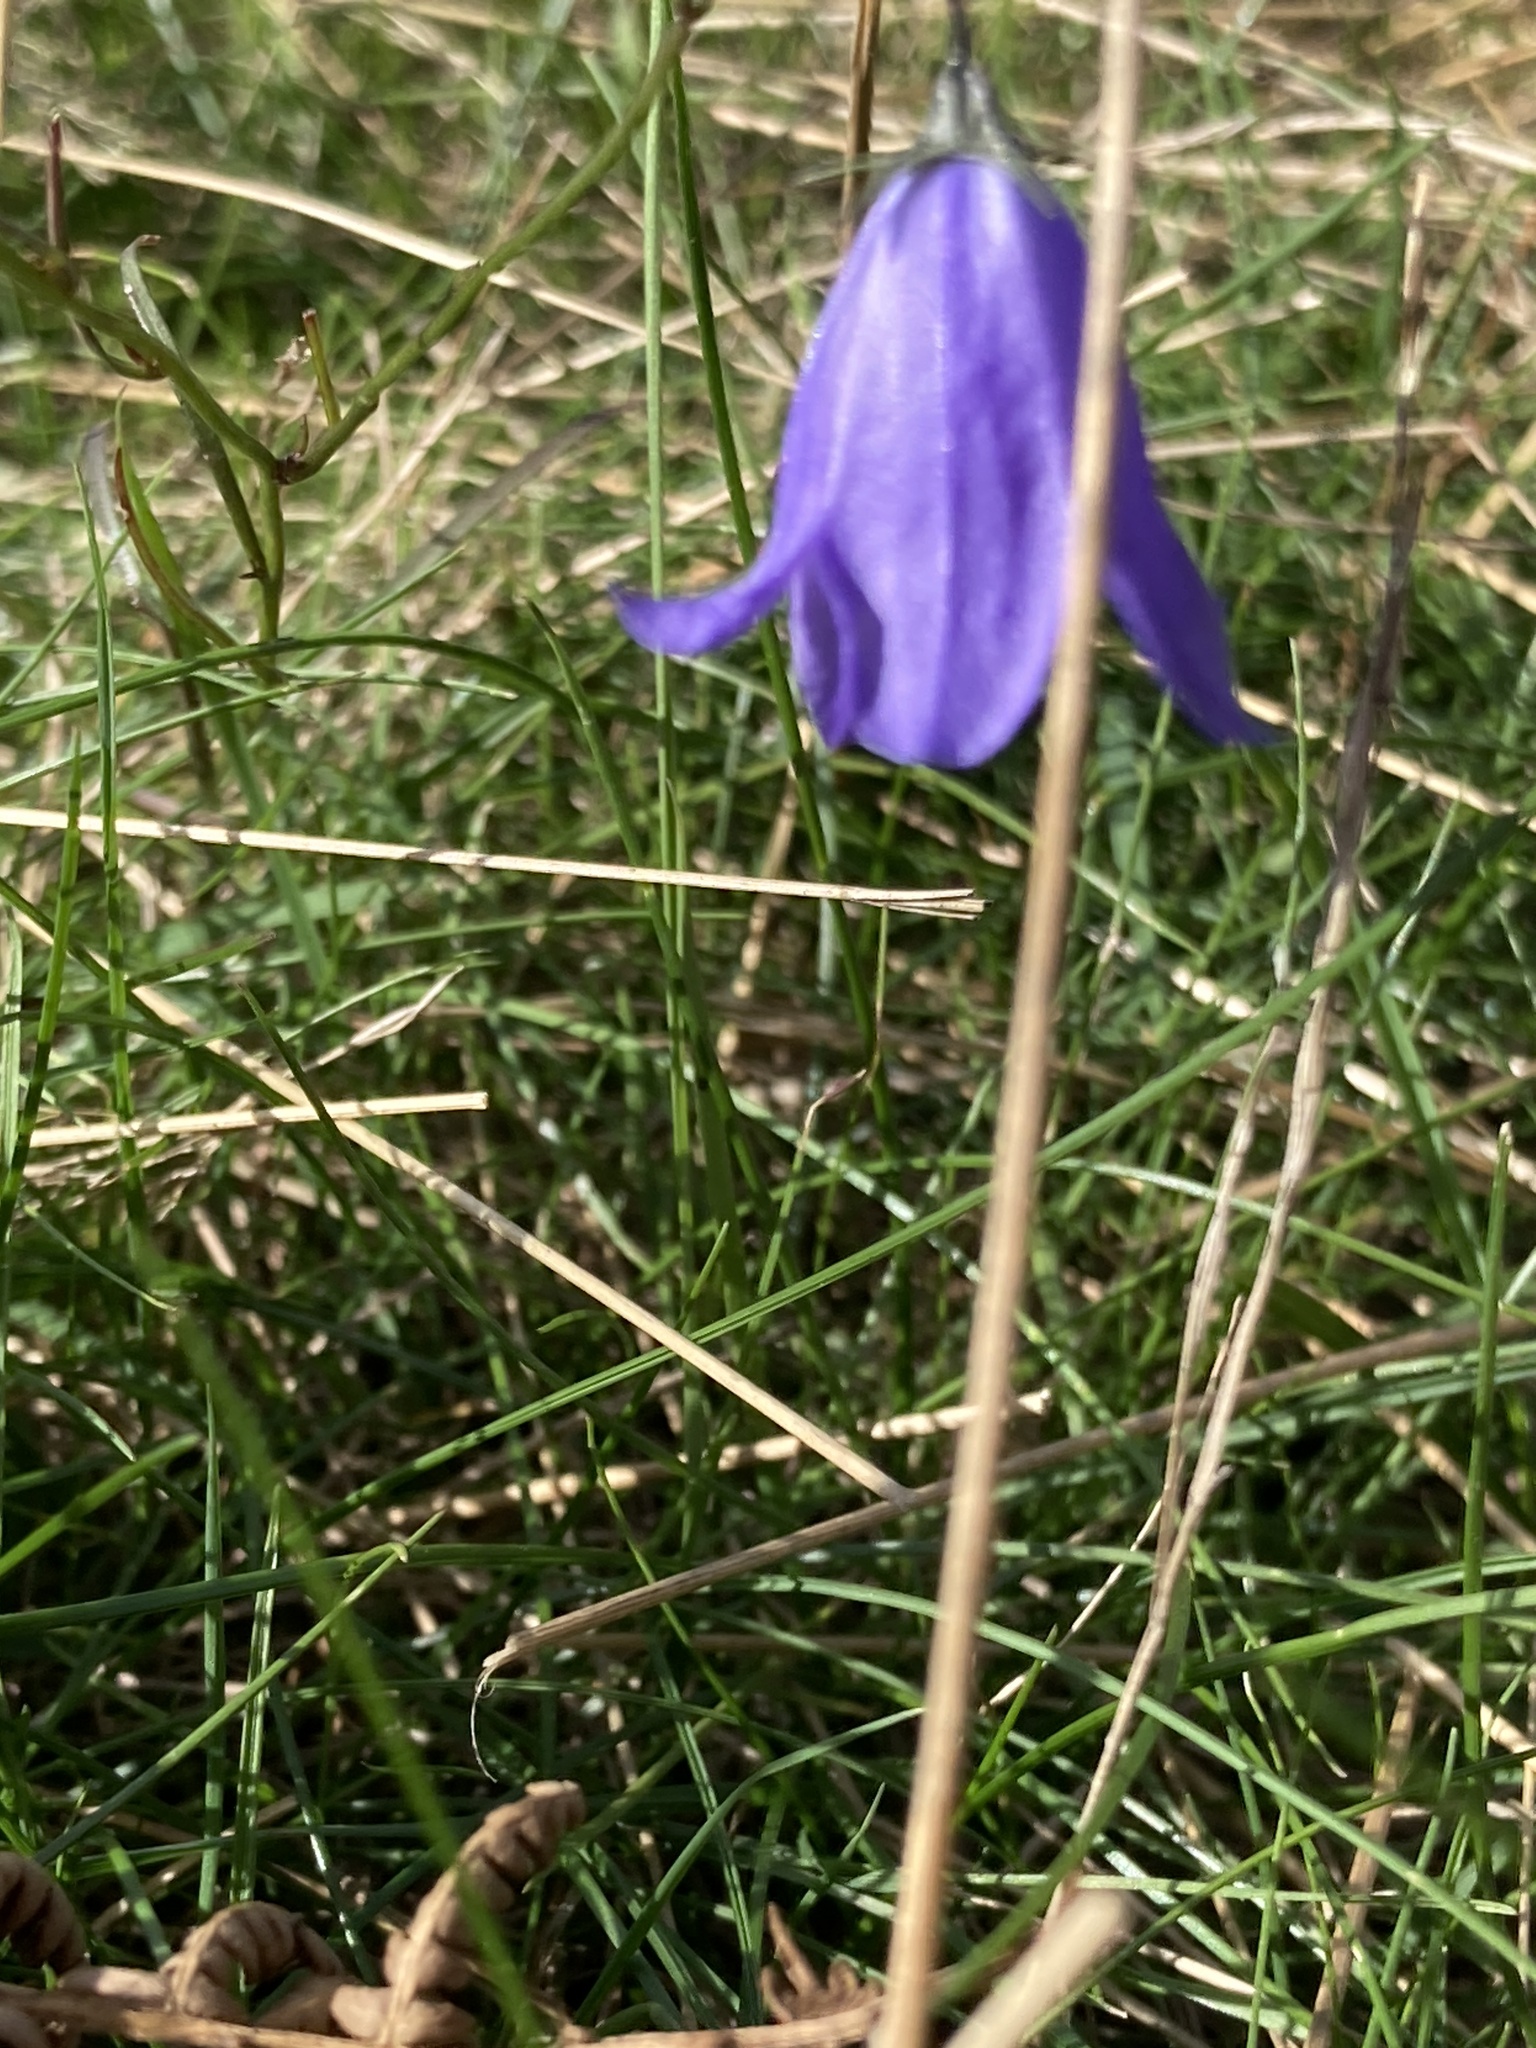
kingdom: Plantae
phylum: Tracheophyta
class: Magnoliopsida
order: Asterales
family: Campanulaceae
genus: Campanula
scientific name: Campanula rotundifolia
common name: Harebell
